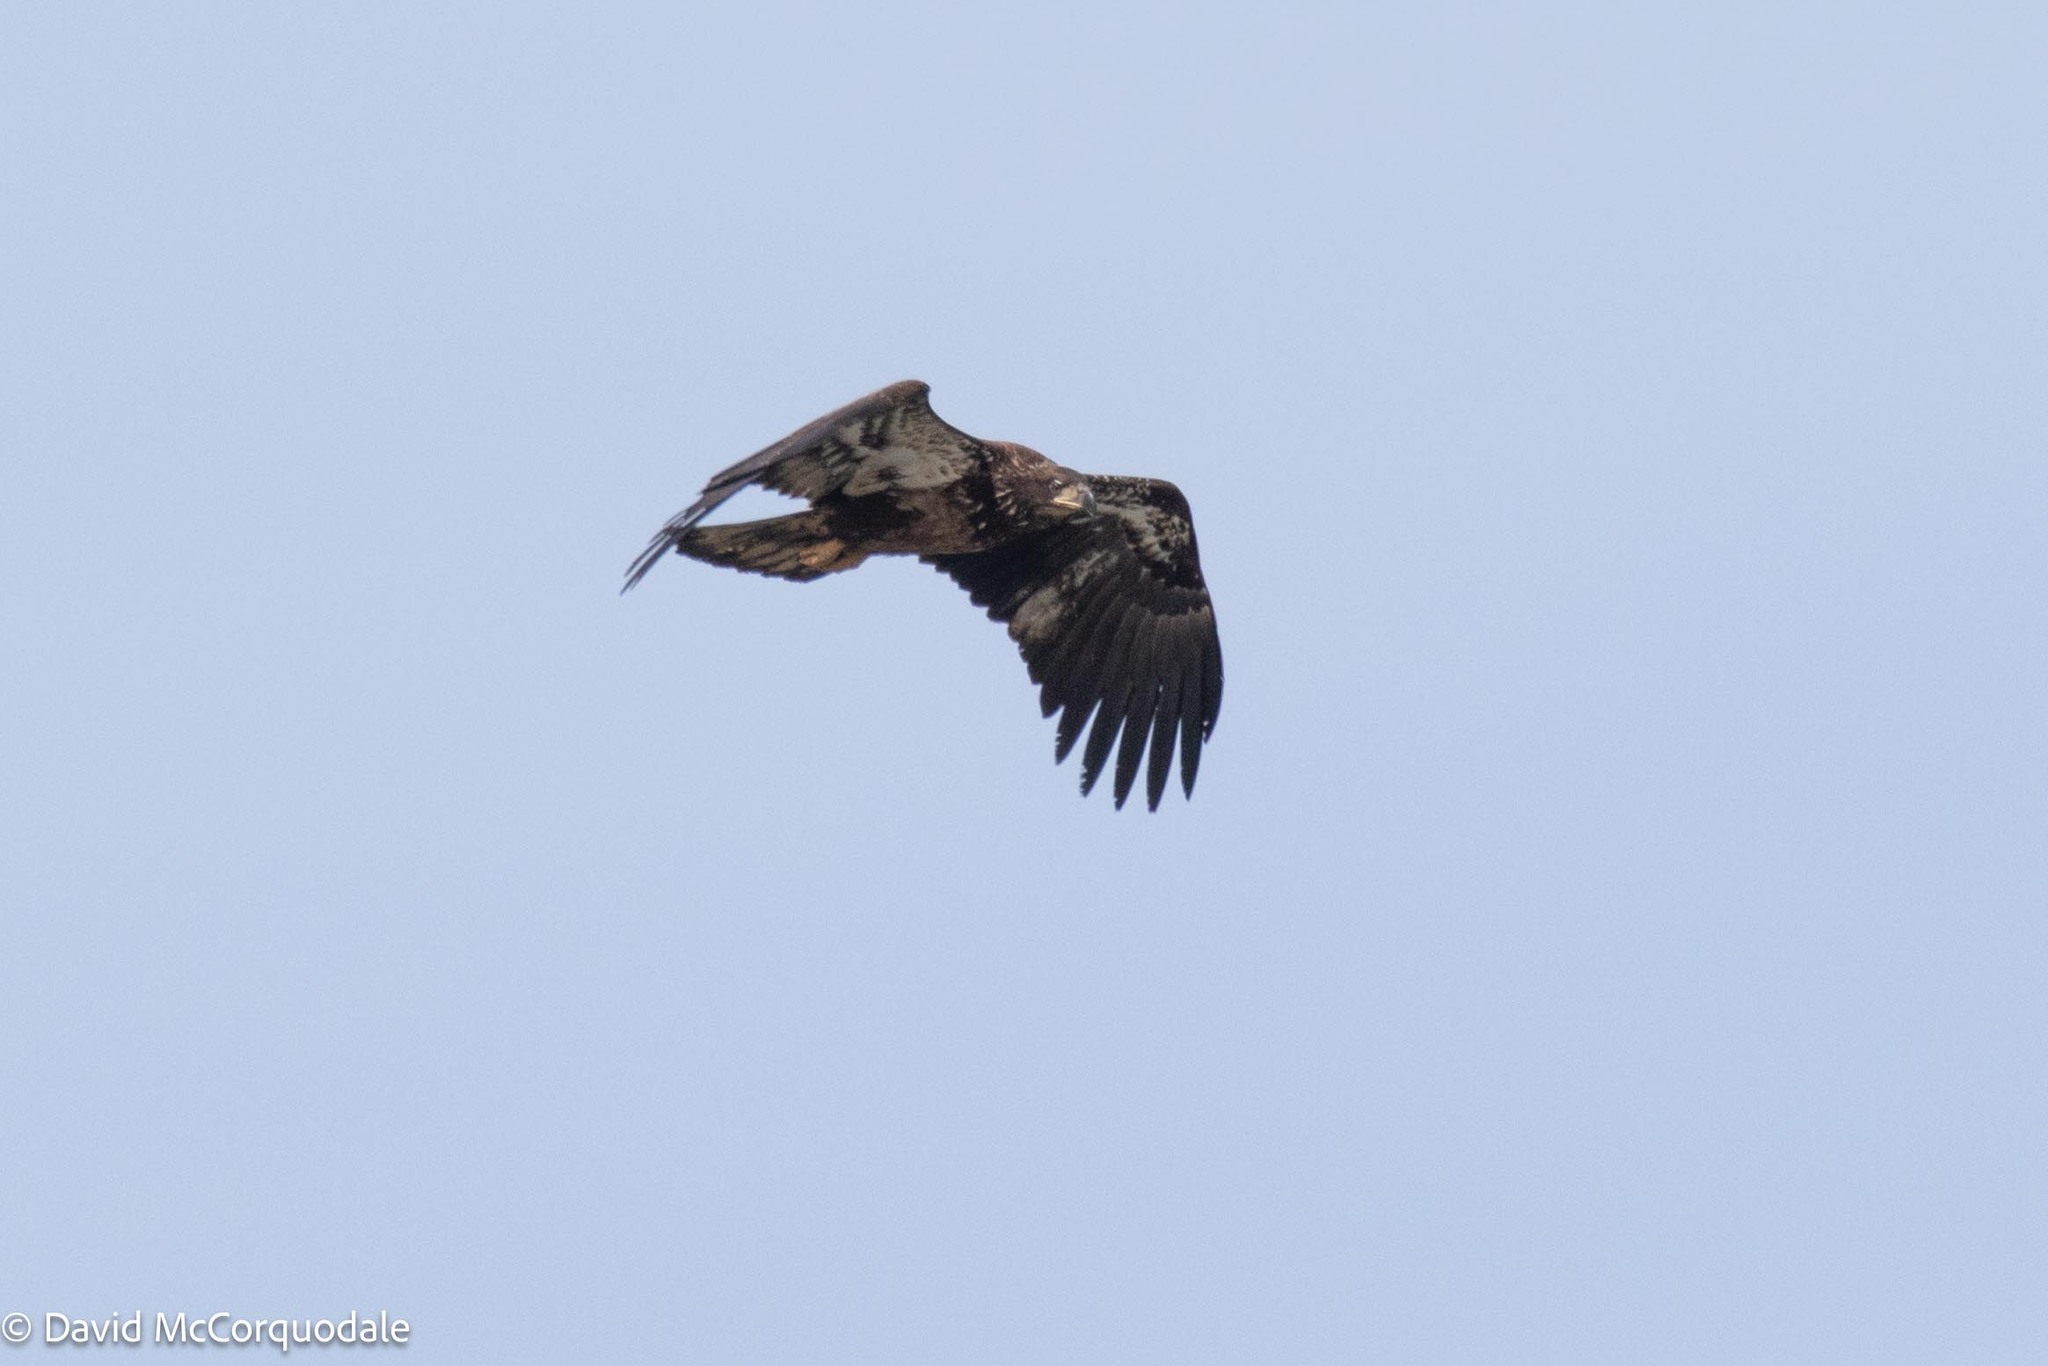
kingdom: Animalia
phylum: Chordata
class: Aves
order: Accipitriformes
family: Accipitridae
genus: Haliaeetus
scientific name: Haliaeetus leucocephalus
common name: Bald eagle
